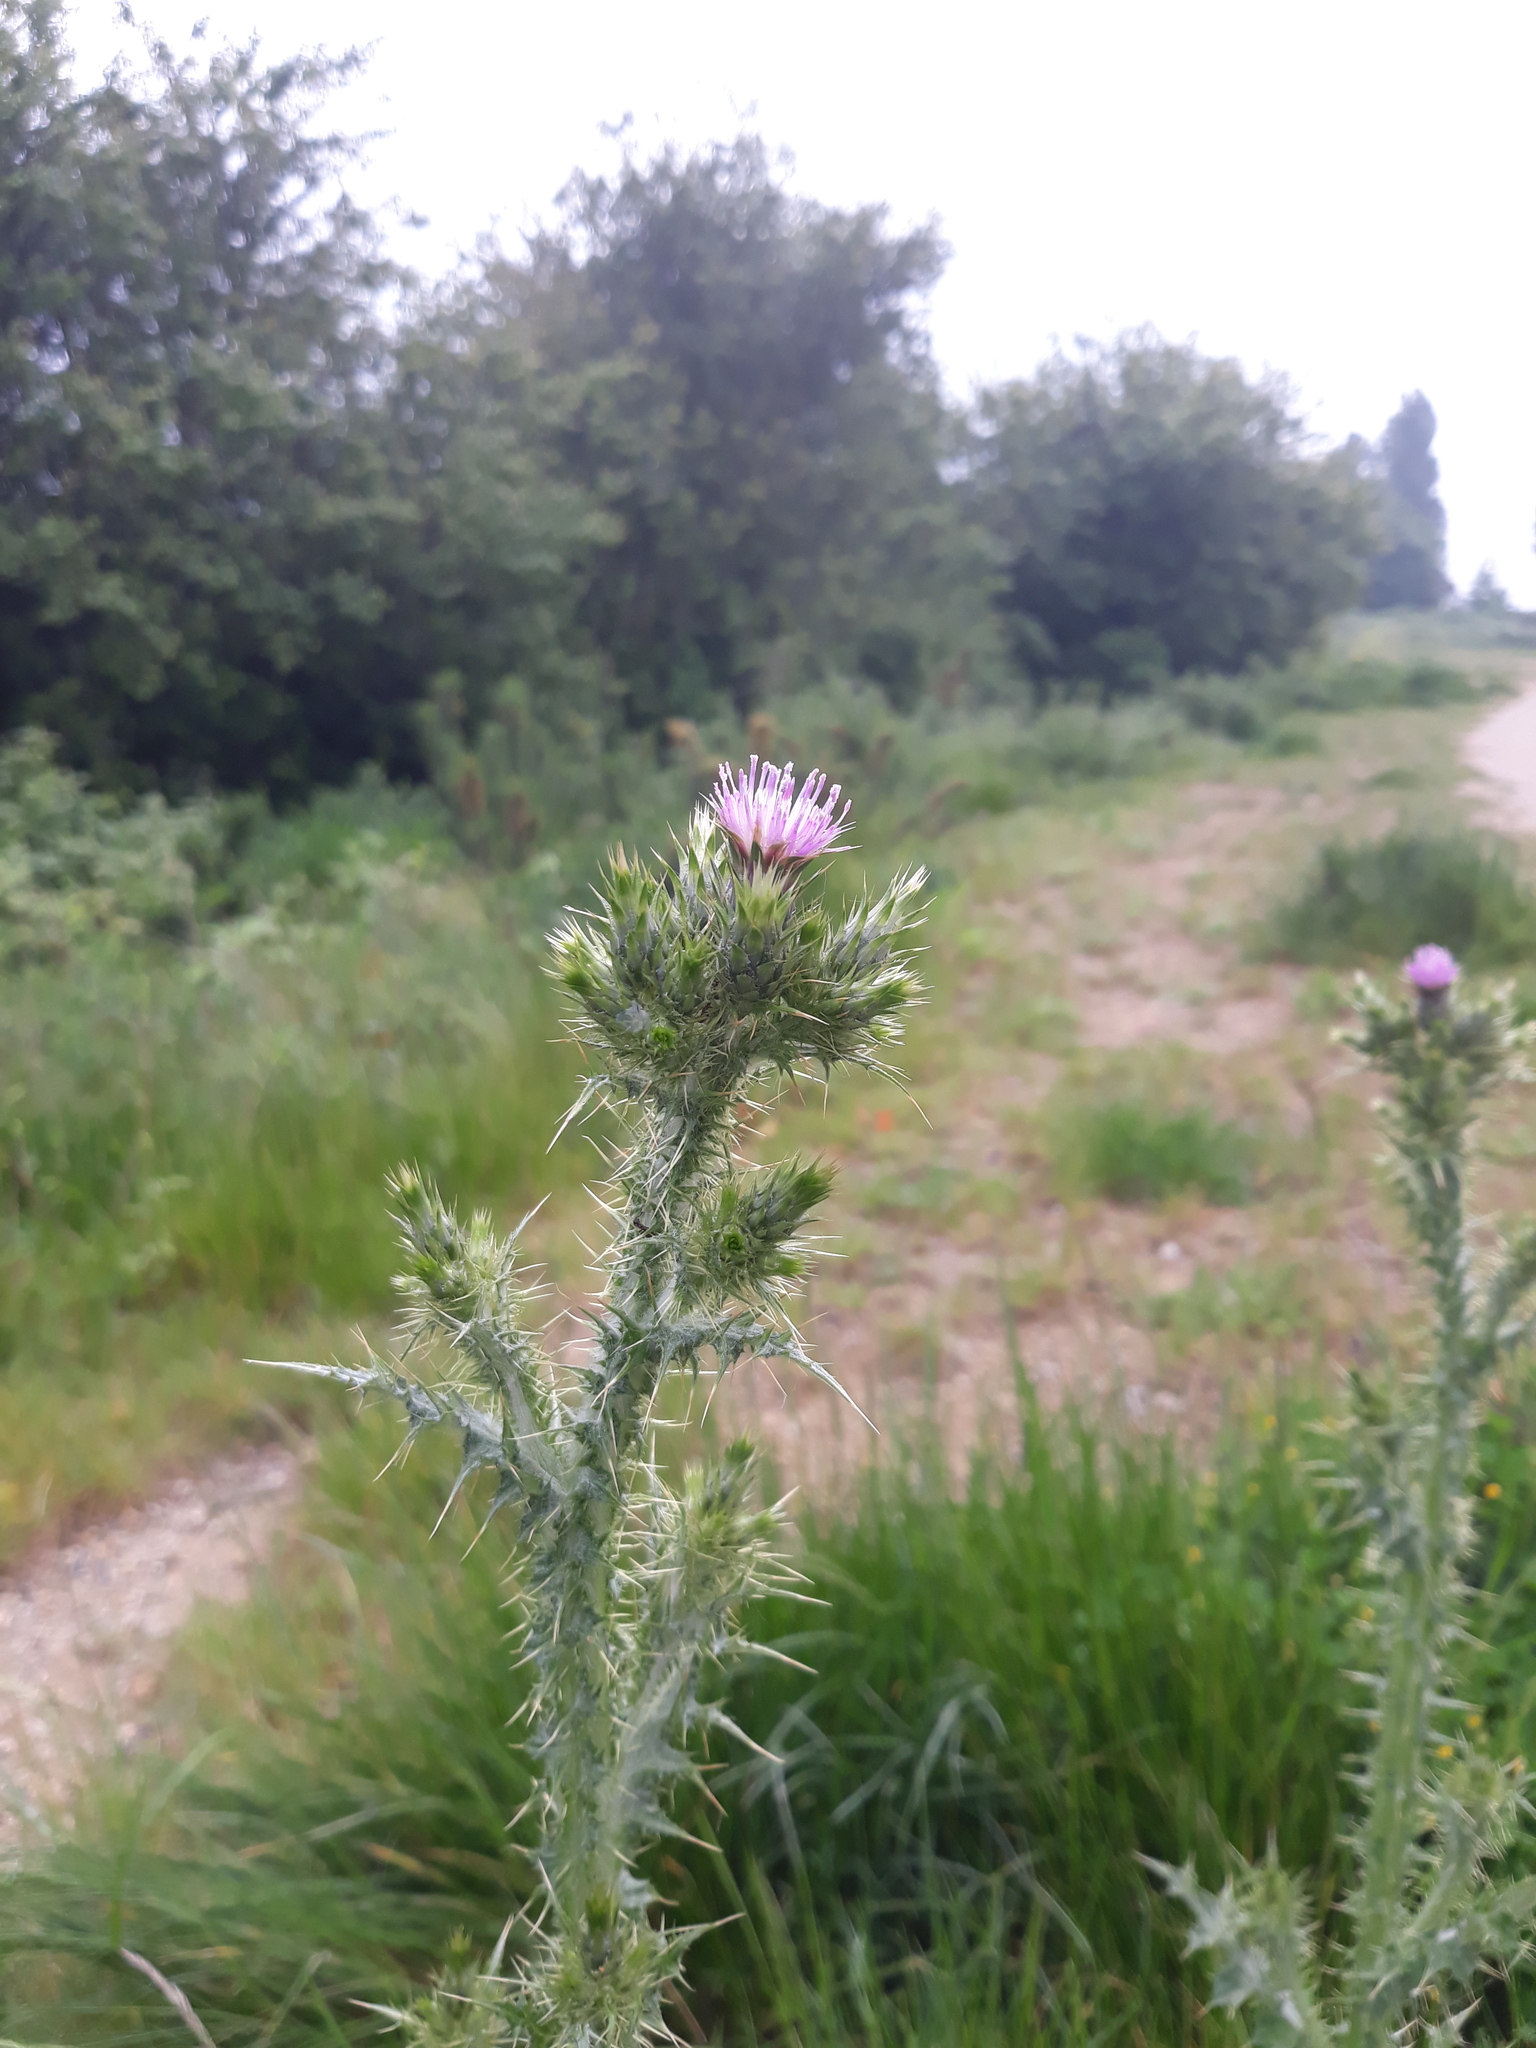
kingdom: Plantae
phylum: Tracheophyta
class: Magnoliopsida
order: Asterales
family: Asteraceae
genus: Carduus
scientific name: Carduus tenuiflorus
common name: Slender thistle
